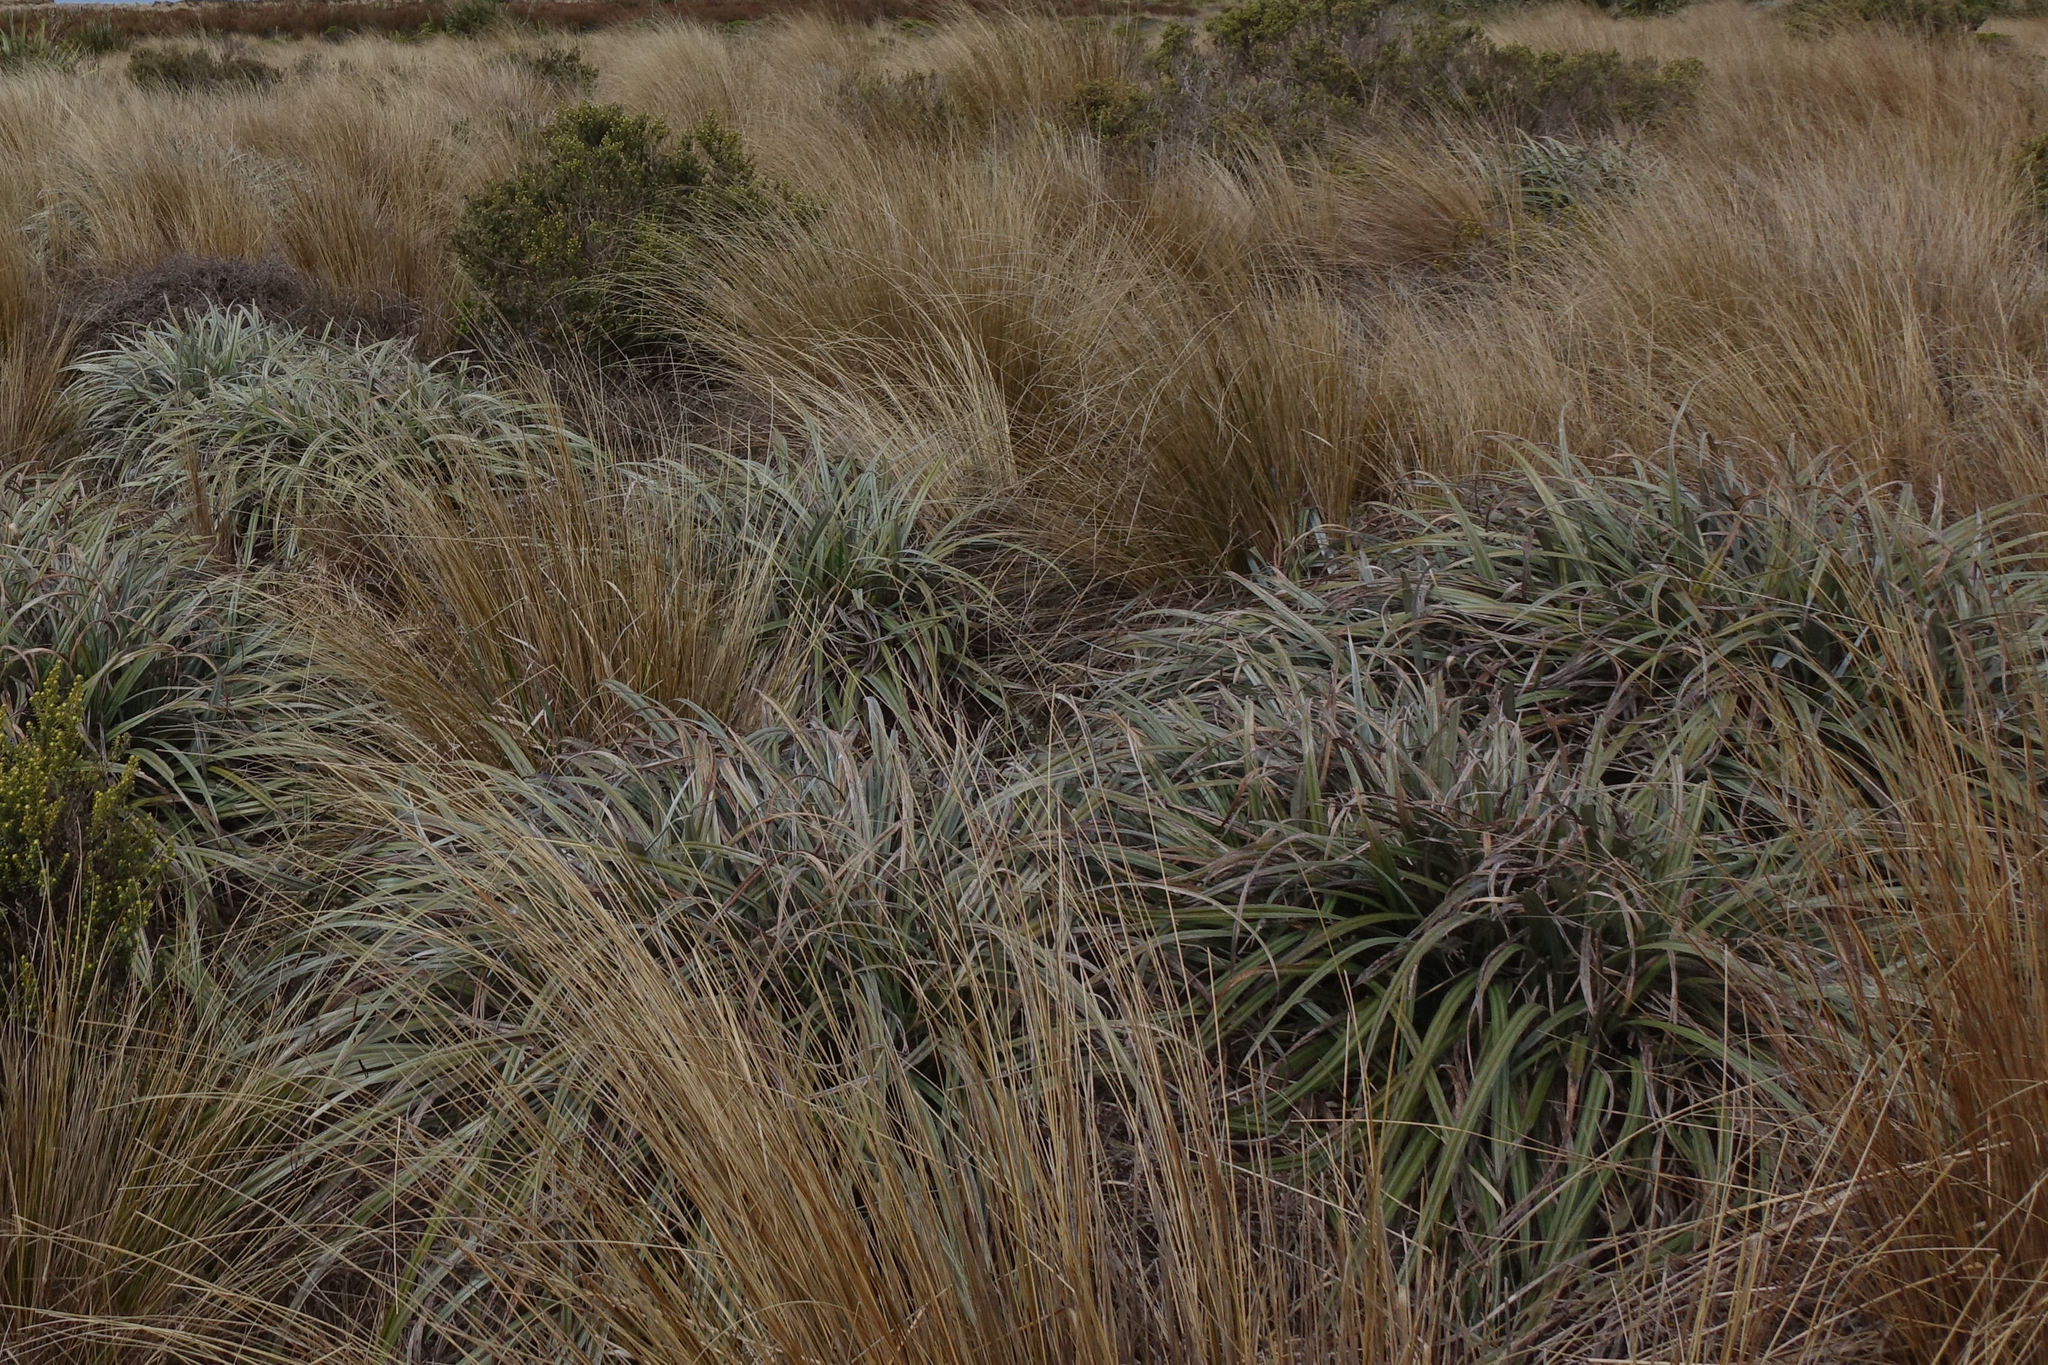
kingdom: Plantae
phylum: Tracheophyta
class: Liliopsida
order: Asparagales
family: Asteliaceae
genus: Astelia
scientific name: Astelia nervosa
